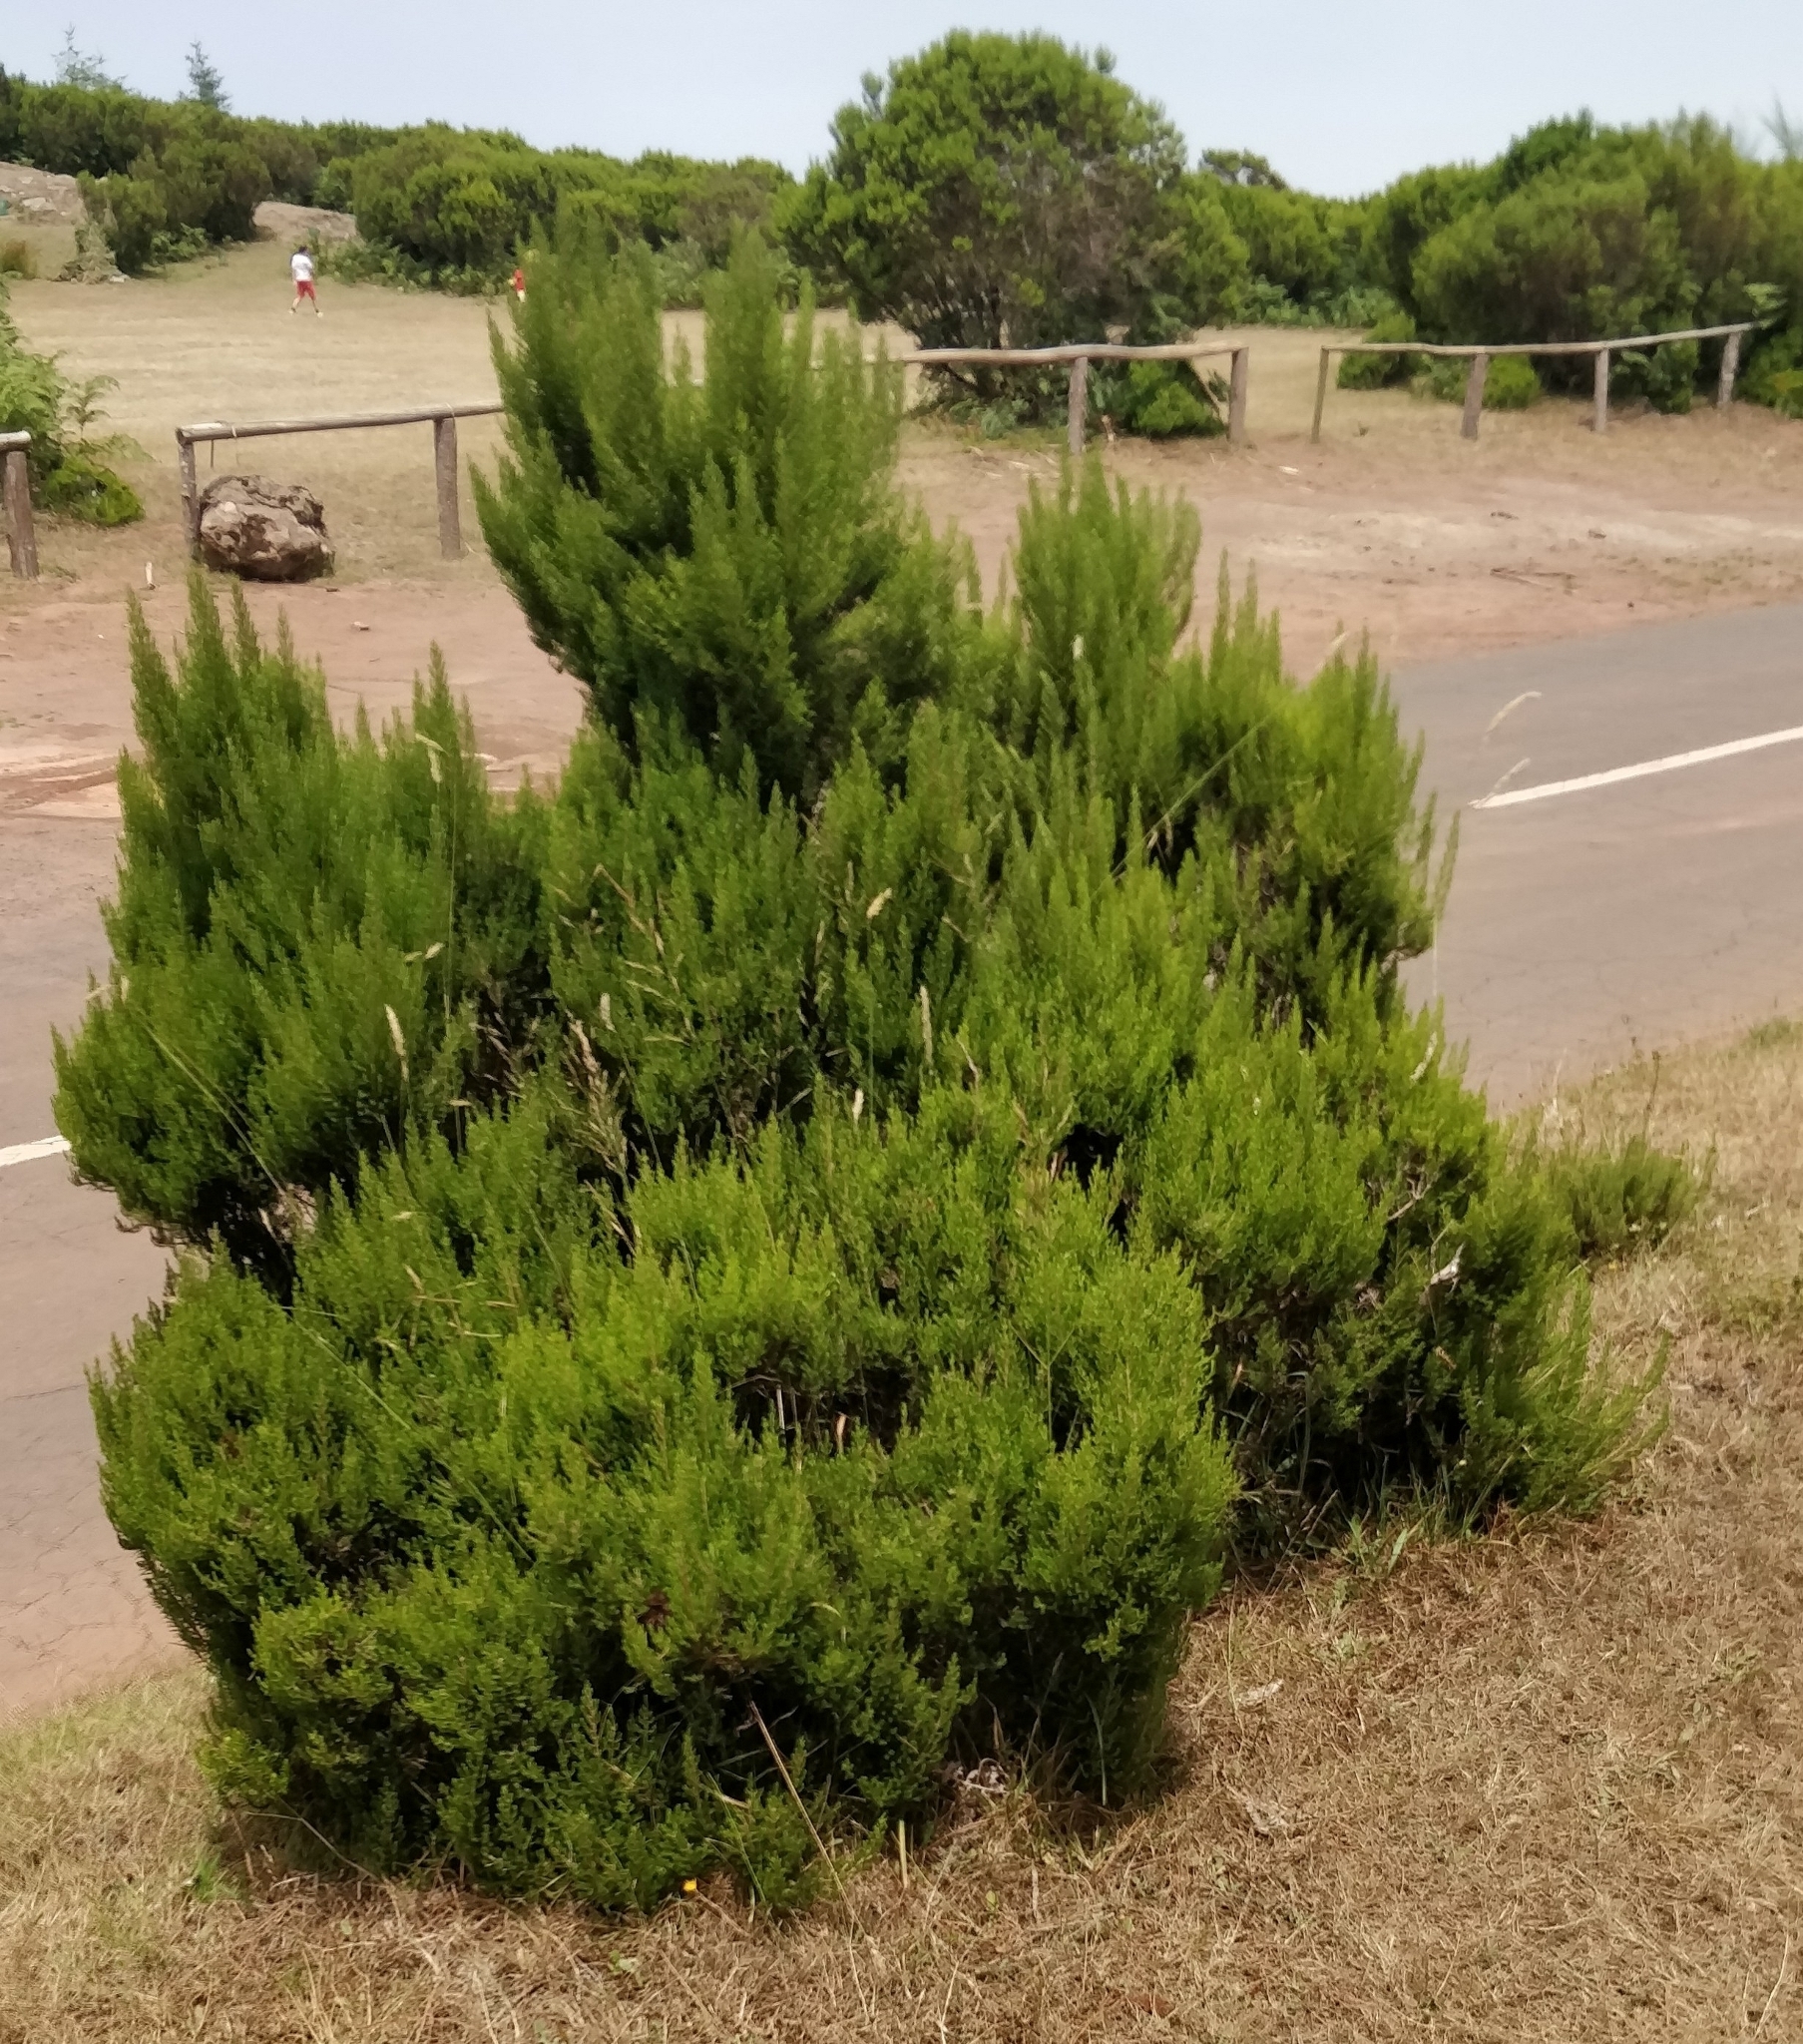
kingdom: Plantae
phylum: Tracheophyta
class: Magnoliopsida
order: Ericales
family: Ericaceae
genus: Erica
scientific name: Erica canariensis
